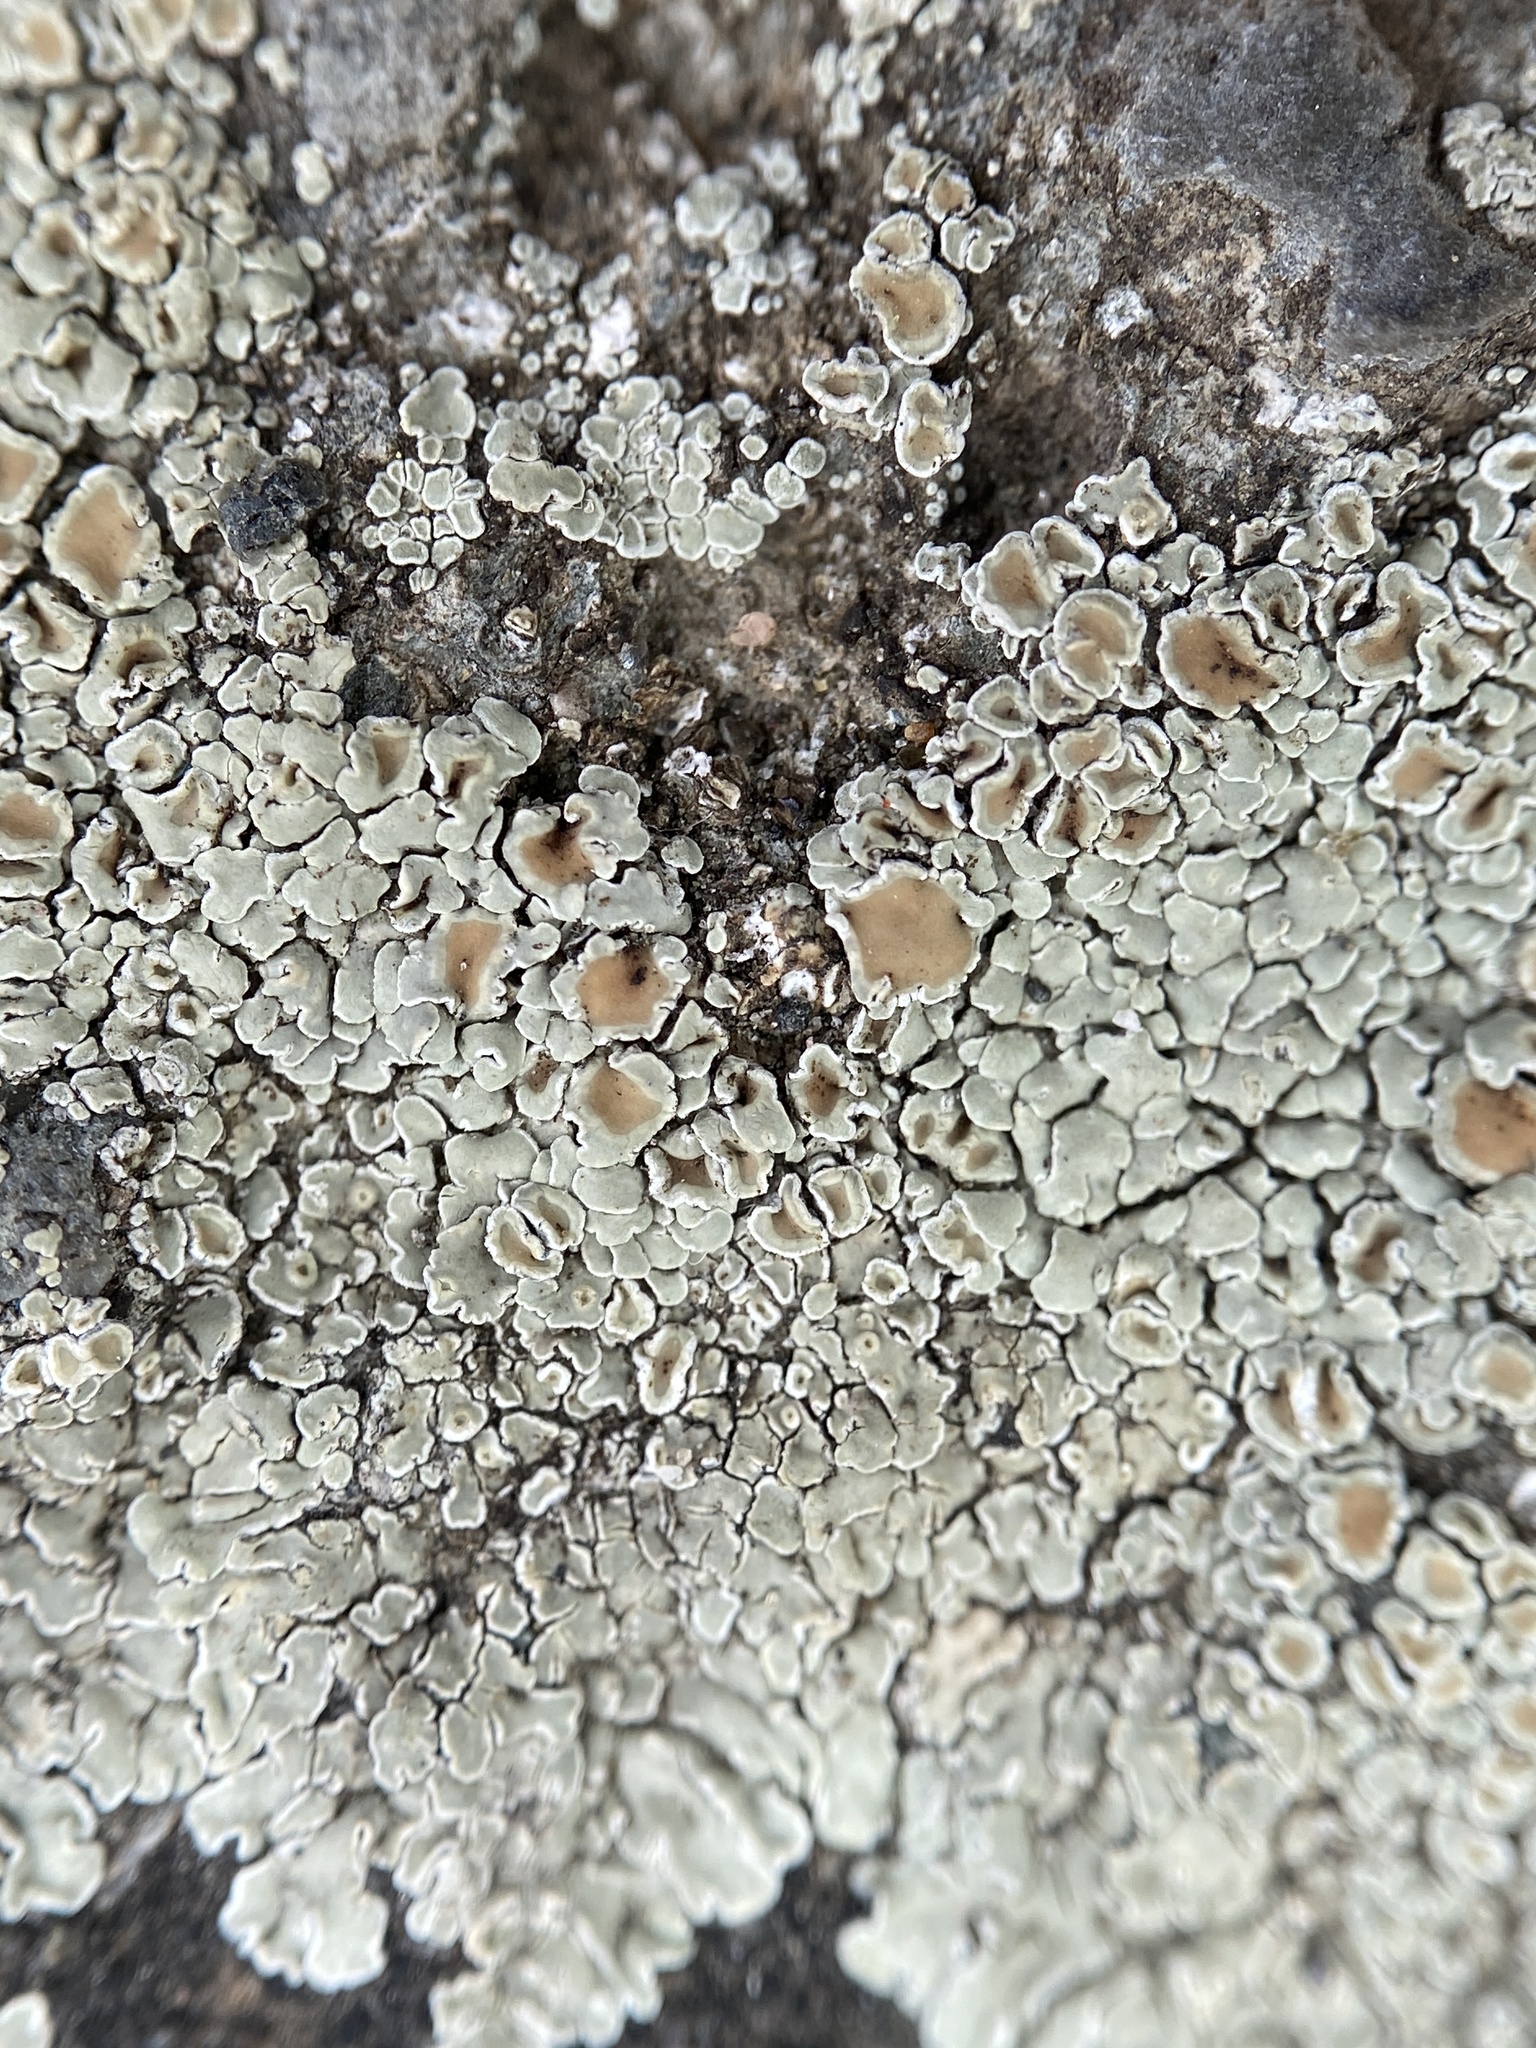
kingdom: Fungi
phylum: Ascomycota
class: Lecanoromycetes
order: Lecanorales
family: Lecanoraceae
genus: Protoparmeliopsis
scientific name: Protoparmeliopsis muralis
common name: Stonewall rim lichen
